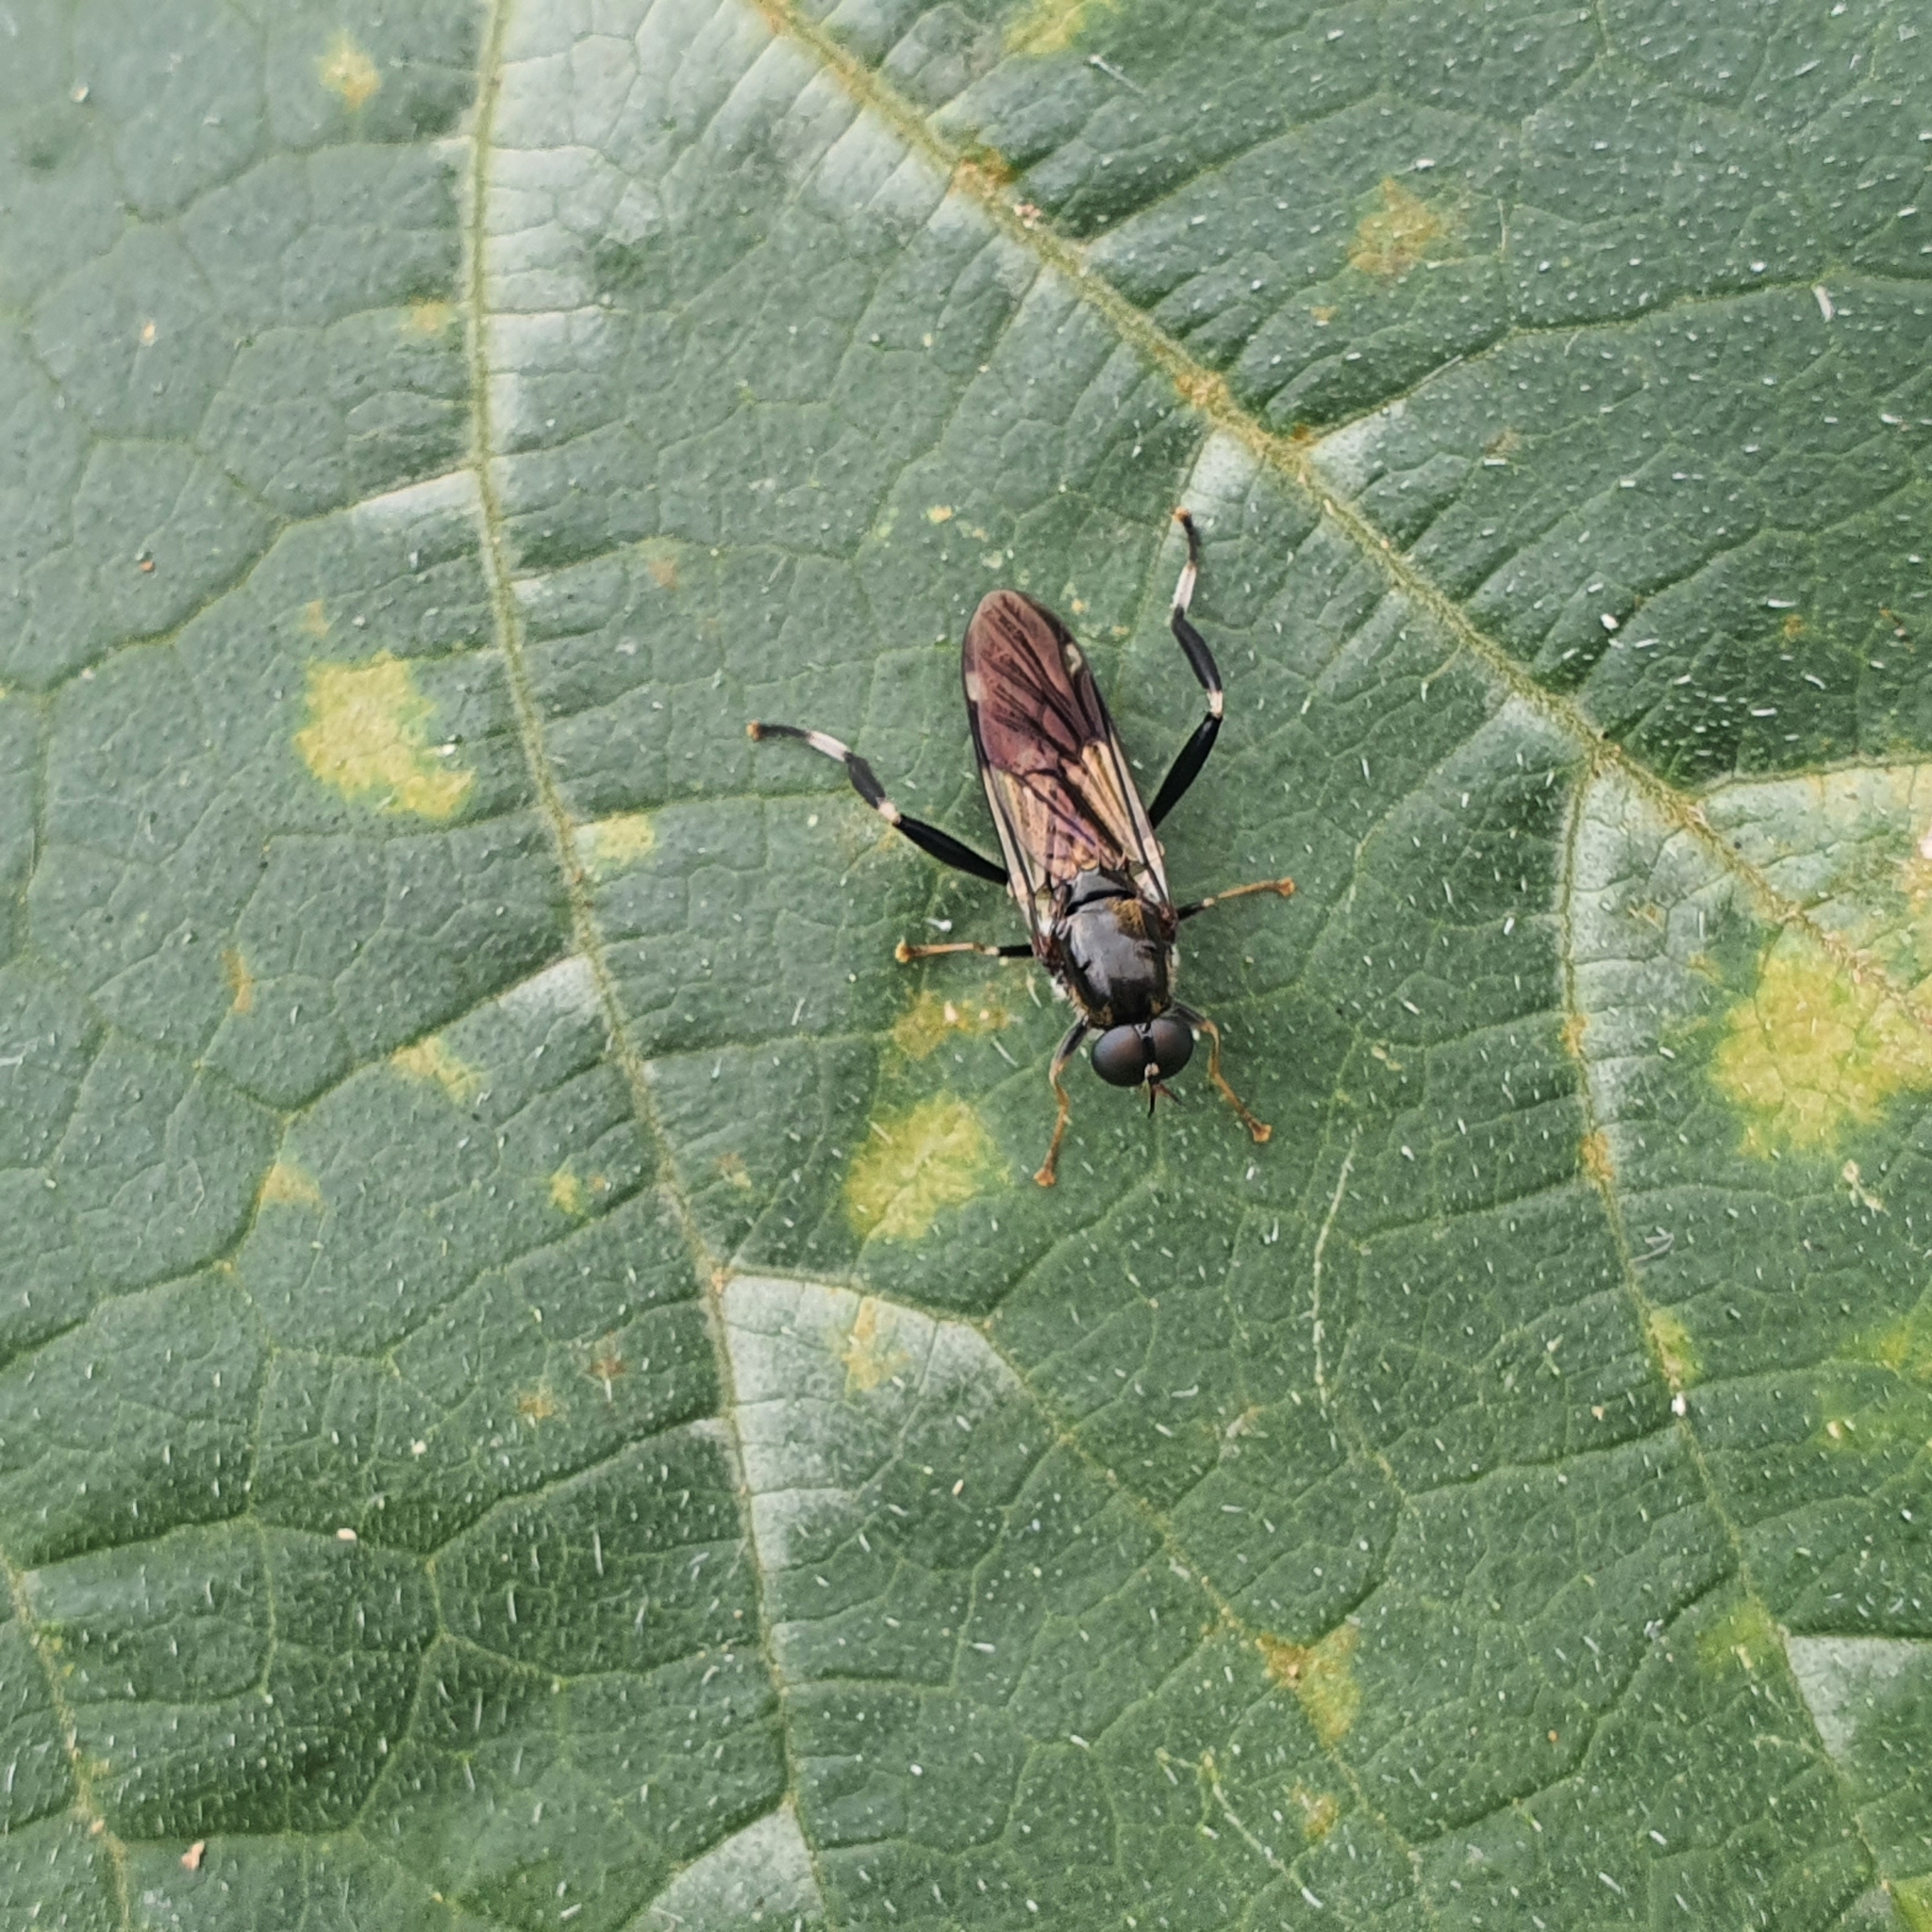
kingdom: Animalia
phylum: Arthropoda
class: Insecta
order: Diptera
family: Stratiomyidae
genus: Exaireta
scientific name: Exaireta spinigera
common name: Blue soldier fly
